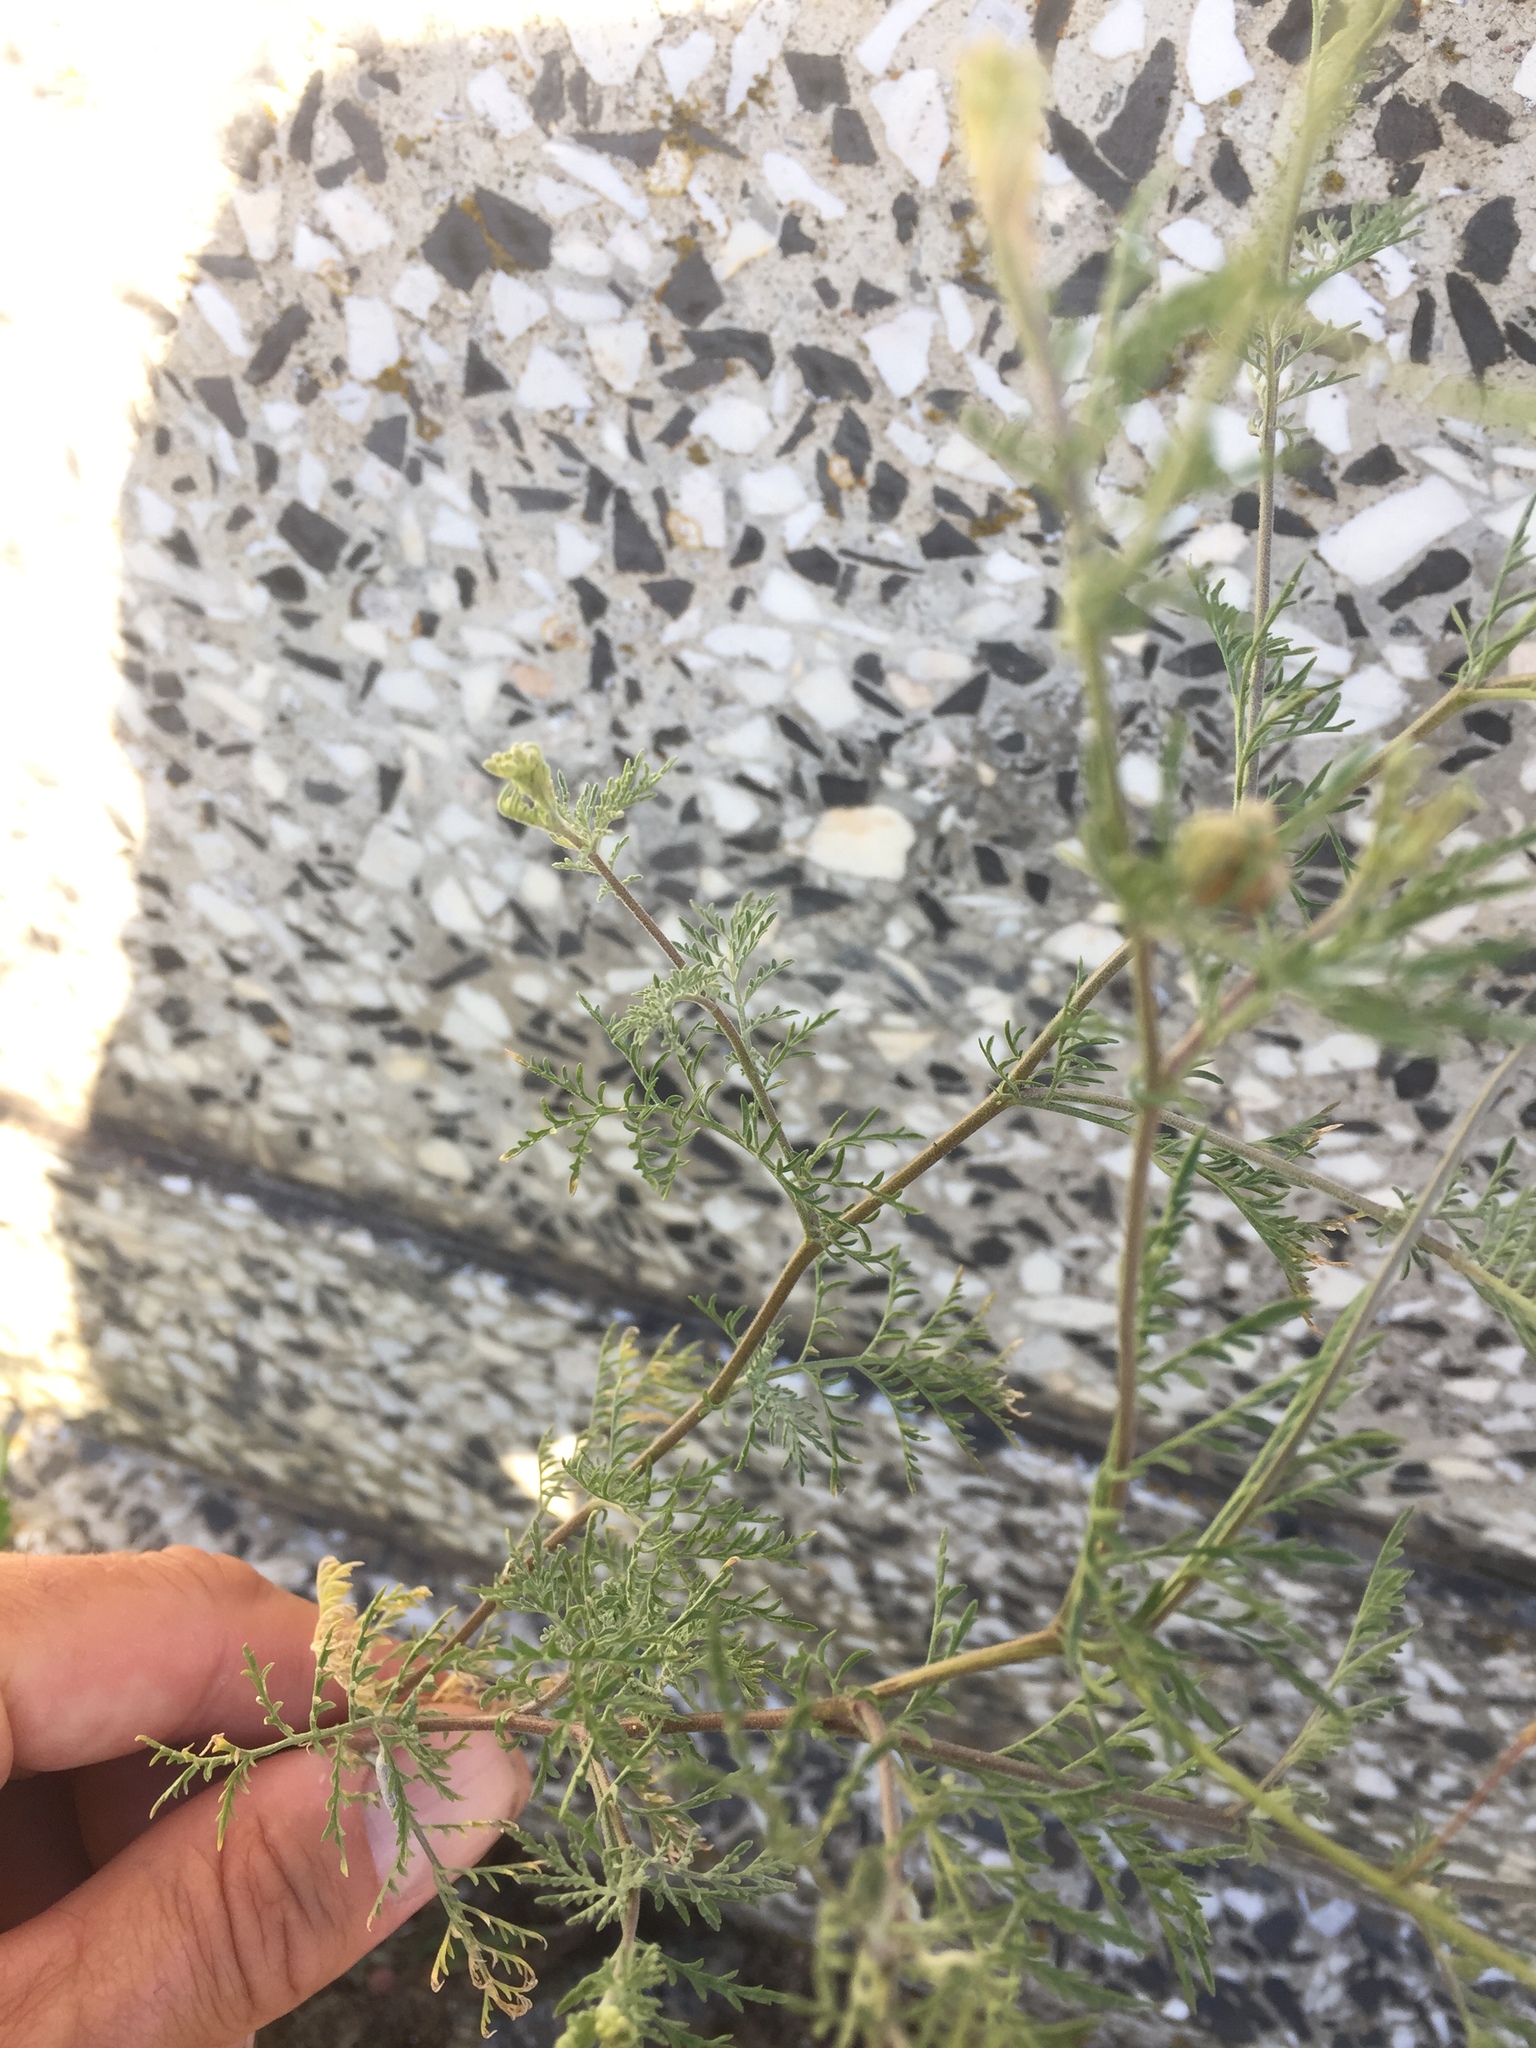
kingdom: Plantae
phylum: Tracheophyta
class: Magnoliopsida
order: Brassicales
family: Brassicaceae
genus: Descurainia
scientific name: Descurainia sophia
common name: Flixweed
